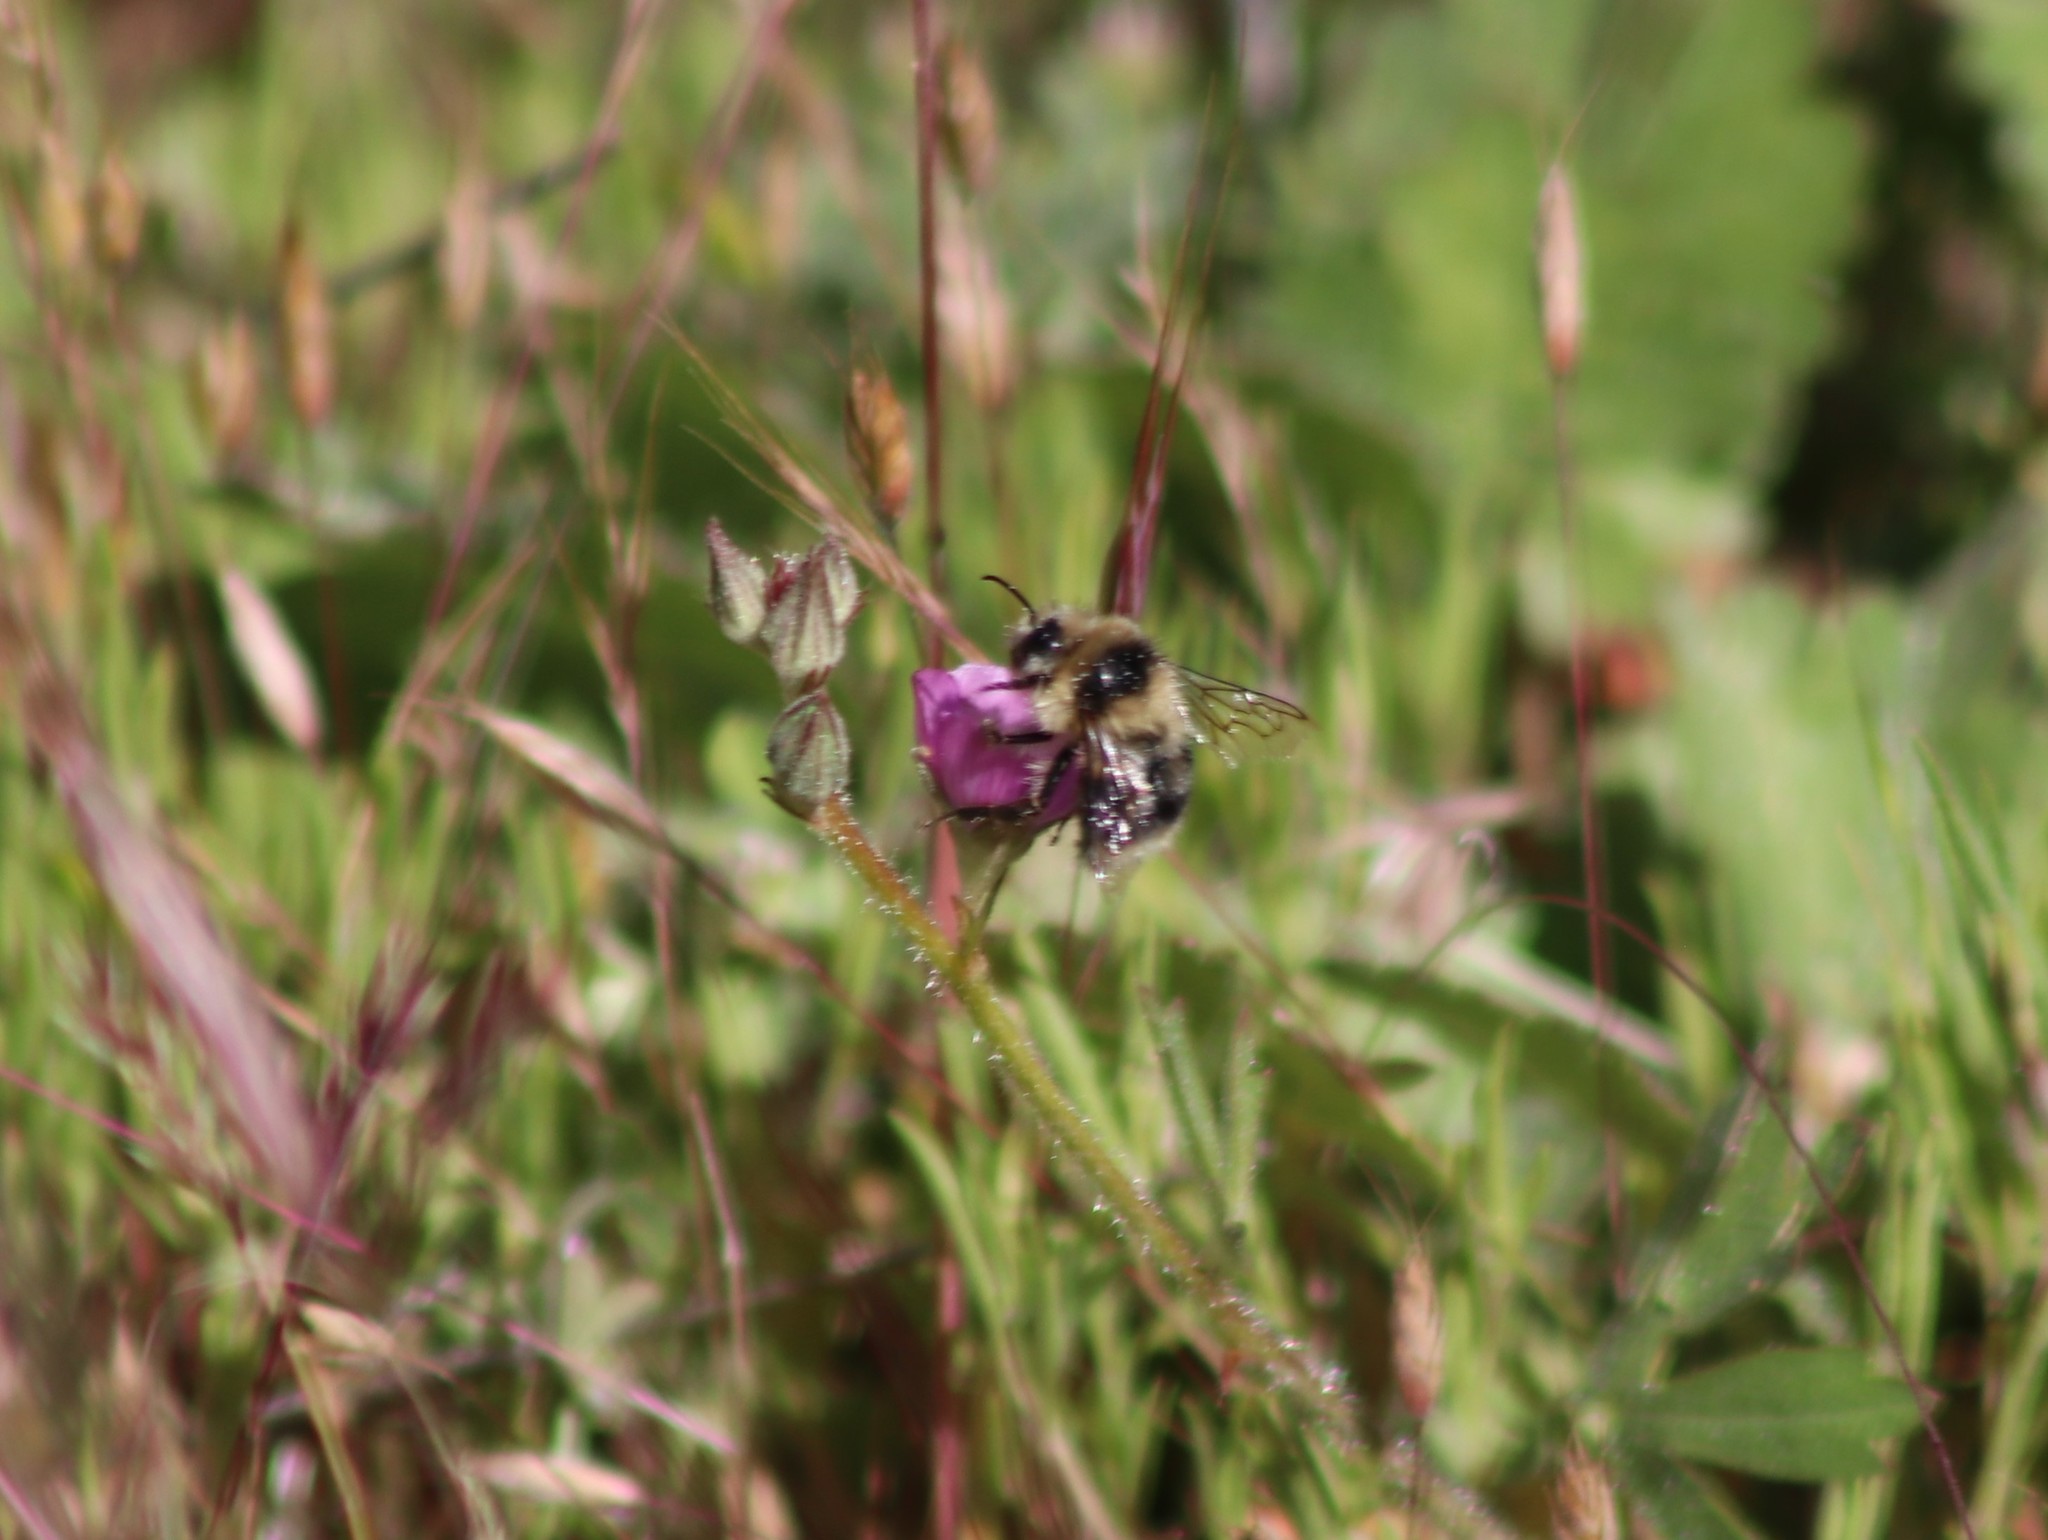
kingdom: Animalia
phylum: Arthropoda
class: Insecta
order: Hymenoptera
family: Apidae
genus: Bombus
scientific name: Bombus melanopygus
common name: Black tail bumble bee
